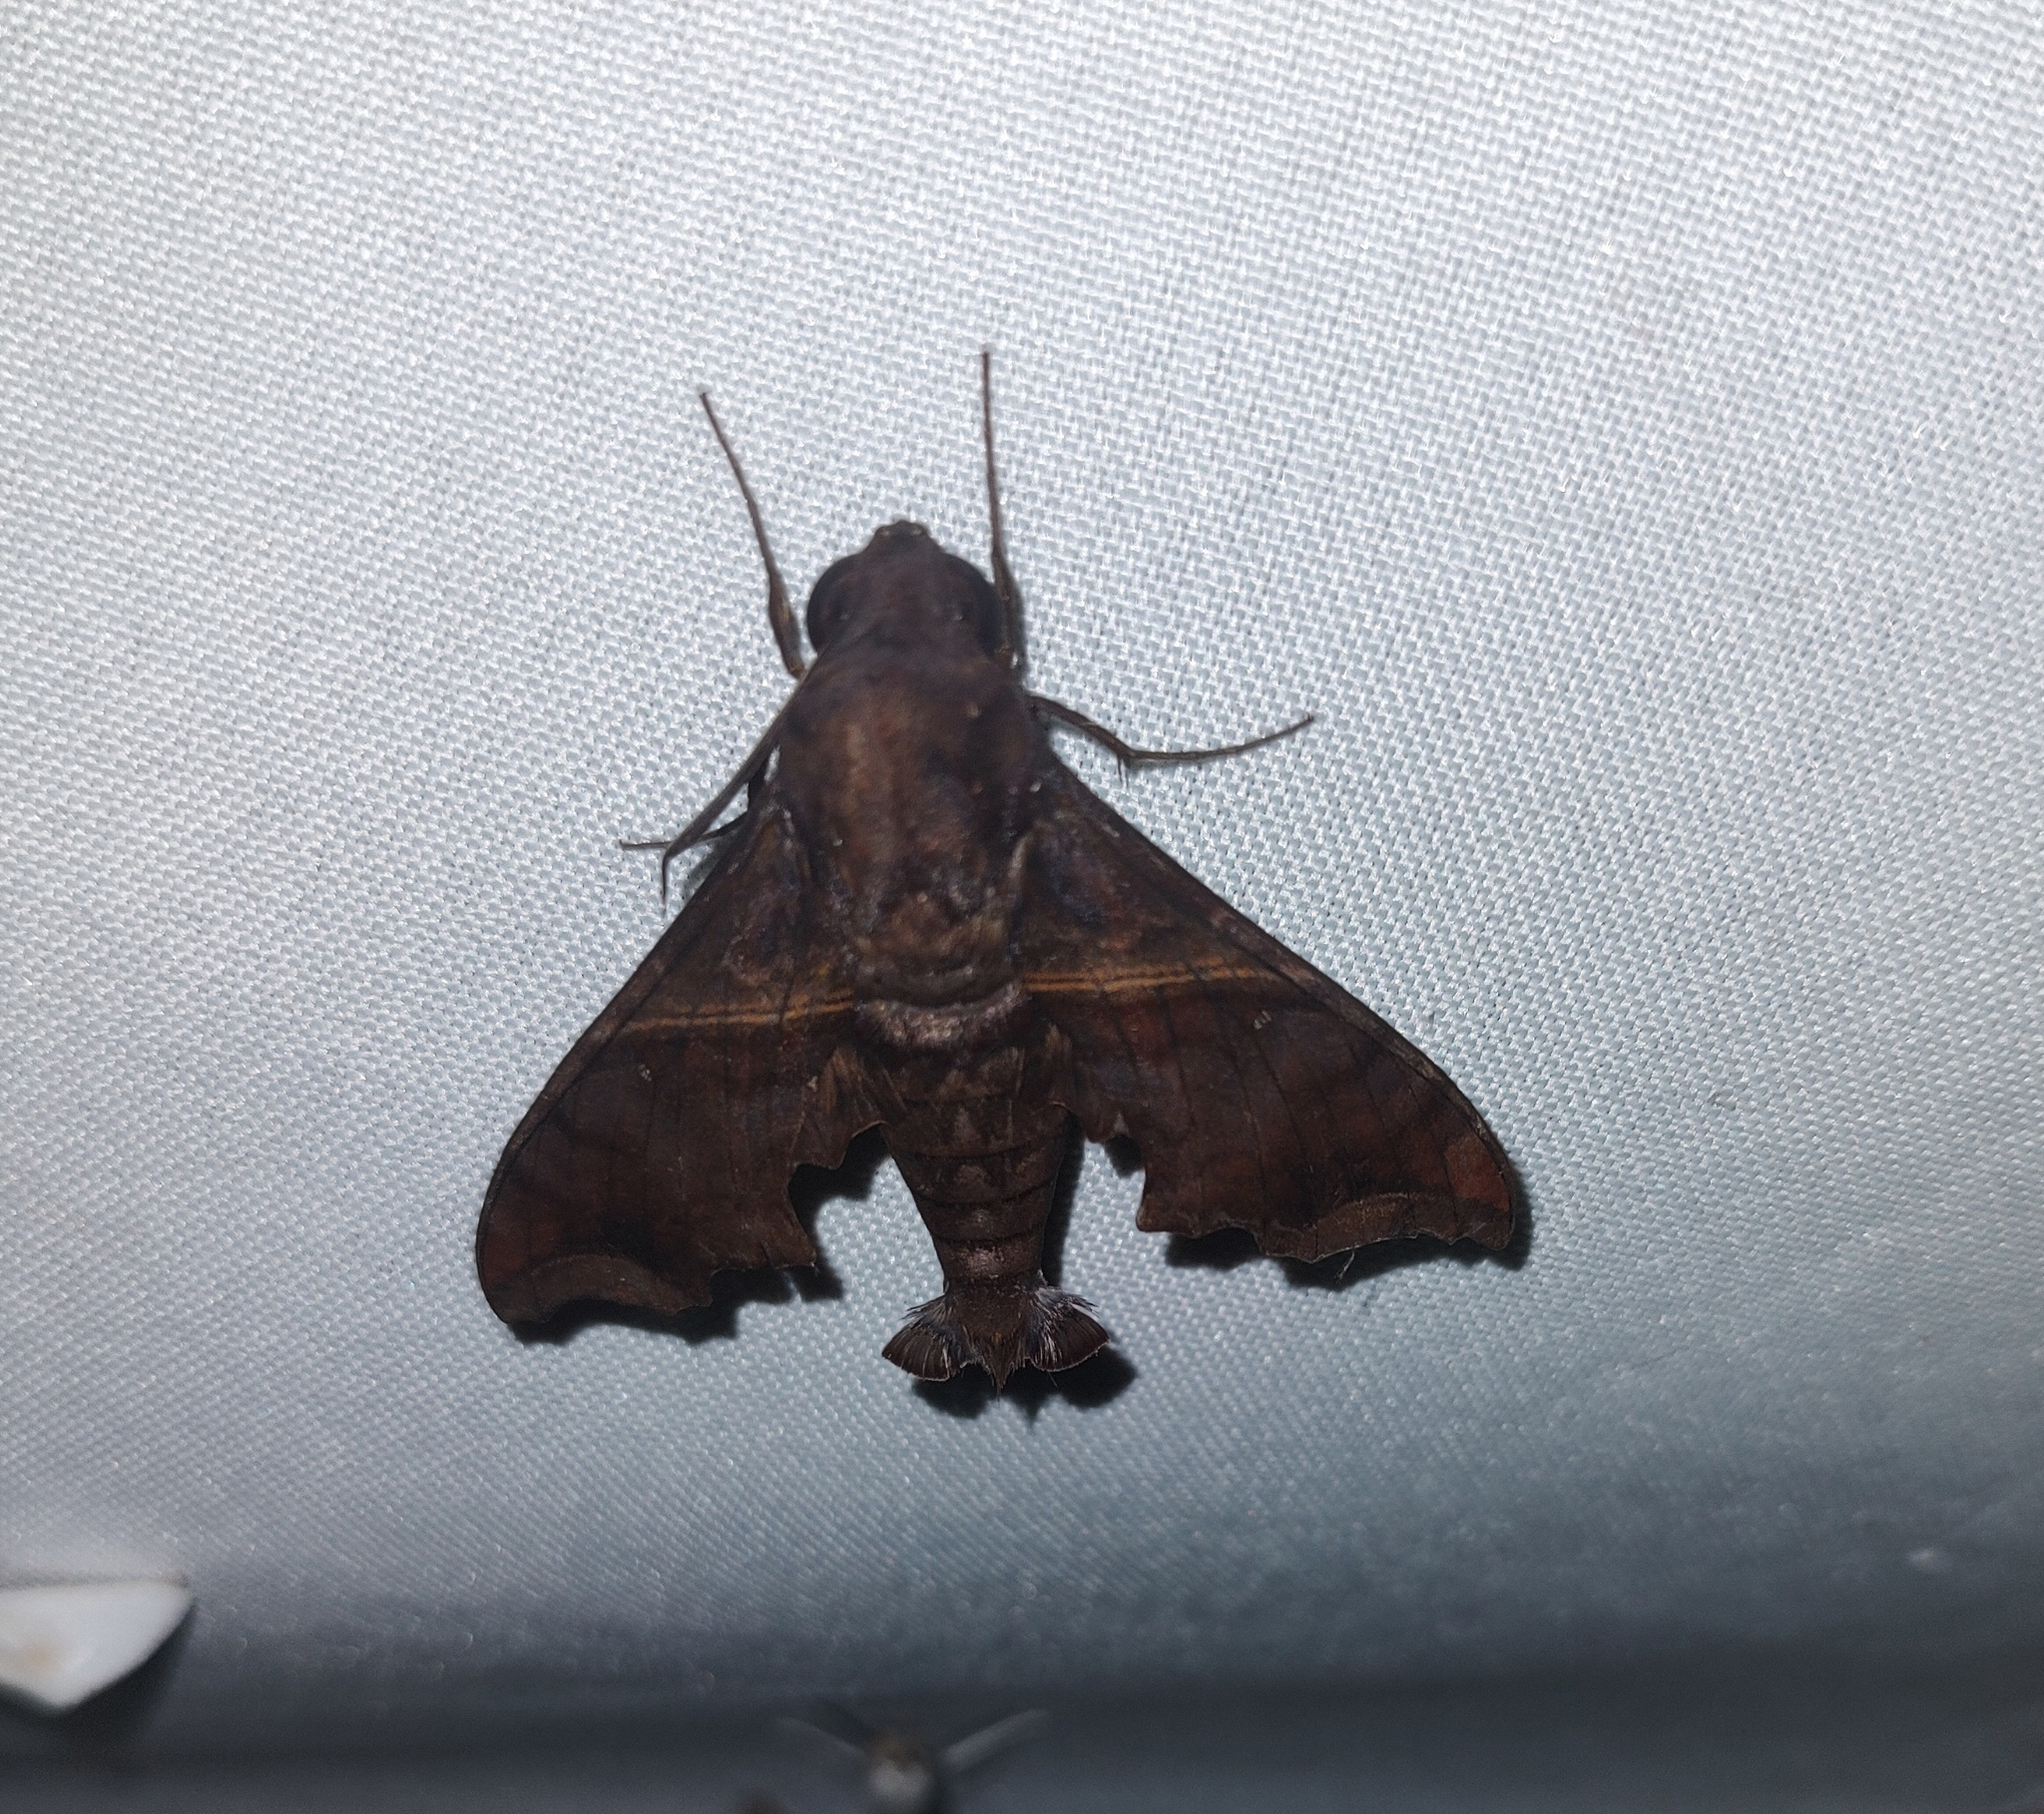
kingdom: Animalia
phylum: Arthropoda
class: Insecta
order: Lepidoptera
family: Sphingidae
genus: Enyo
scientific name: Enyo ocypete
